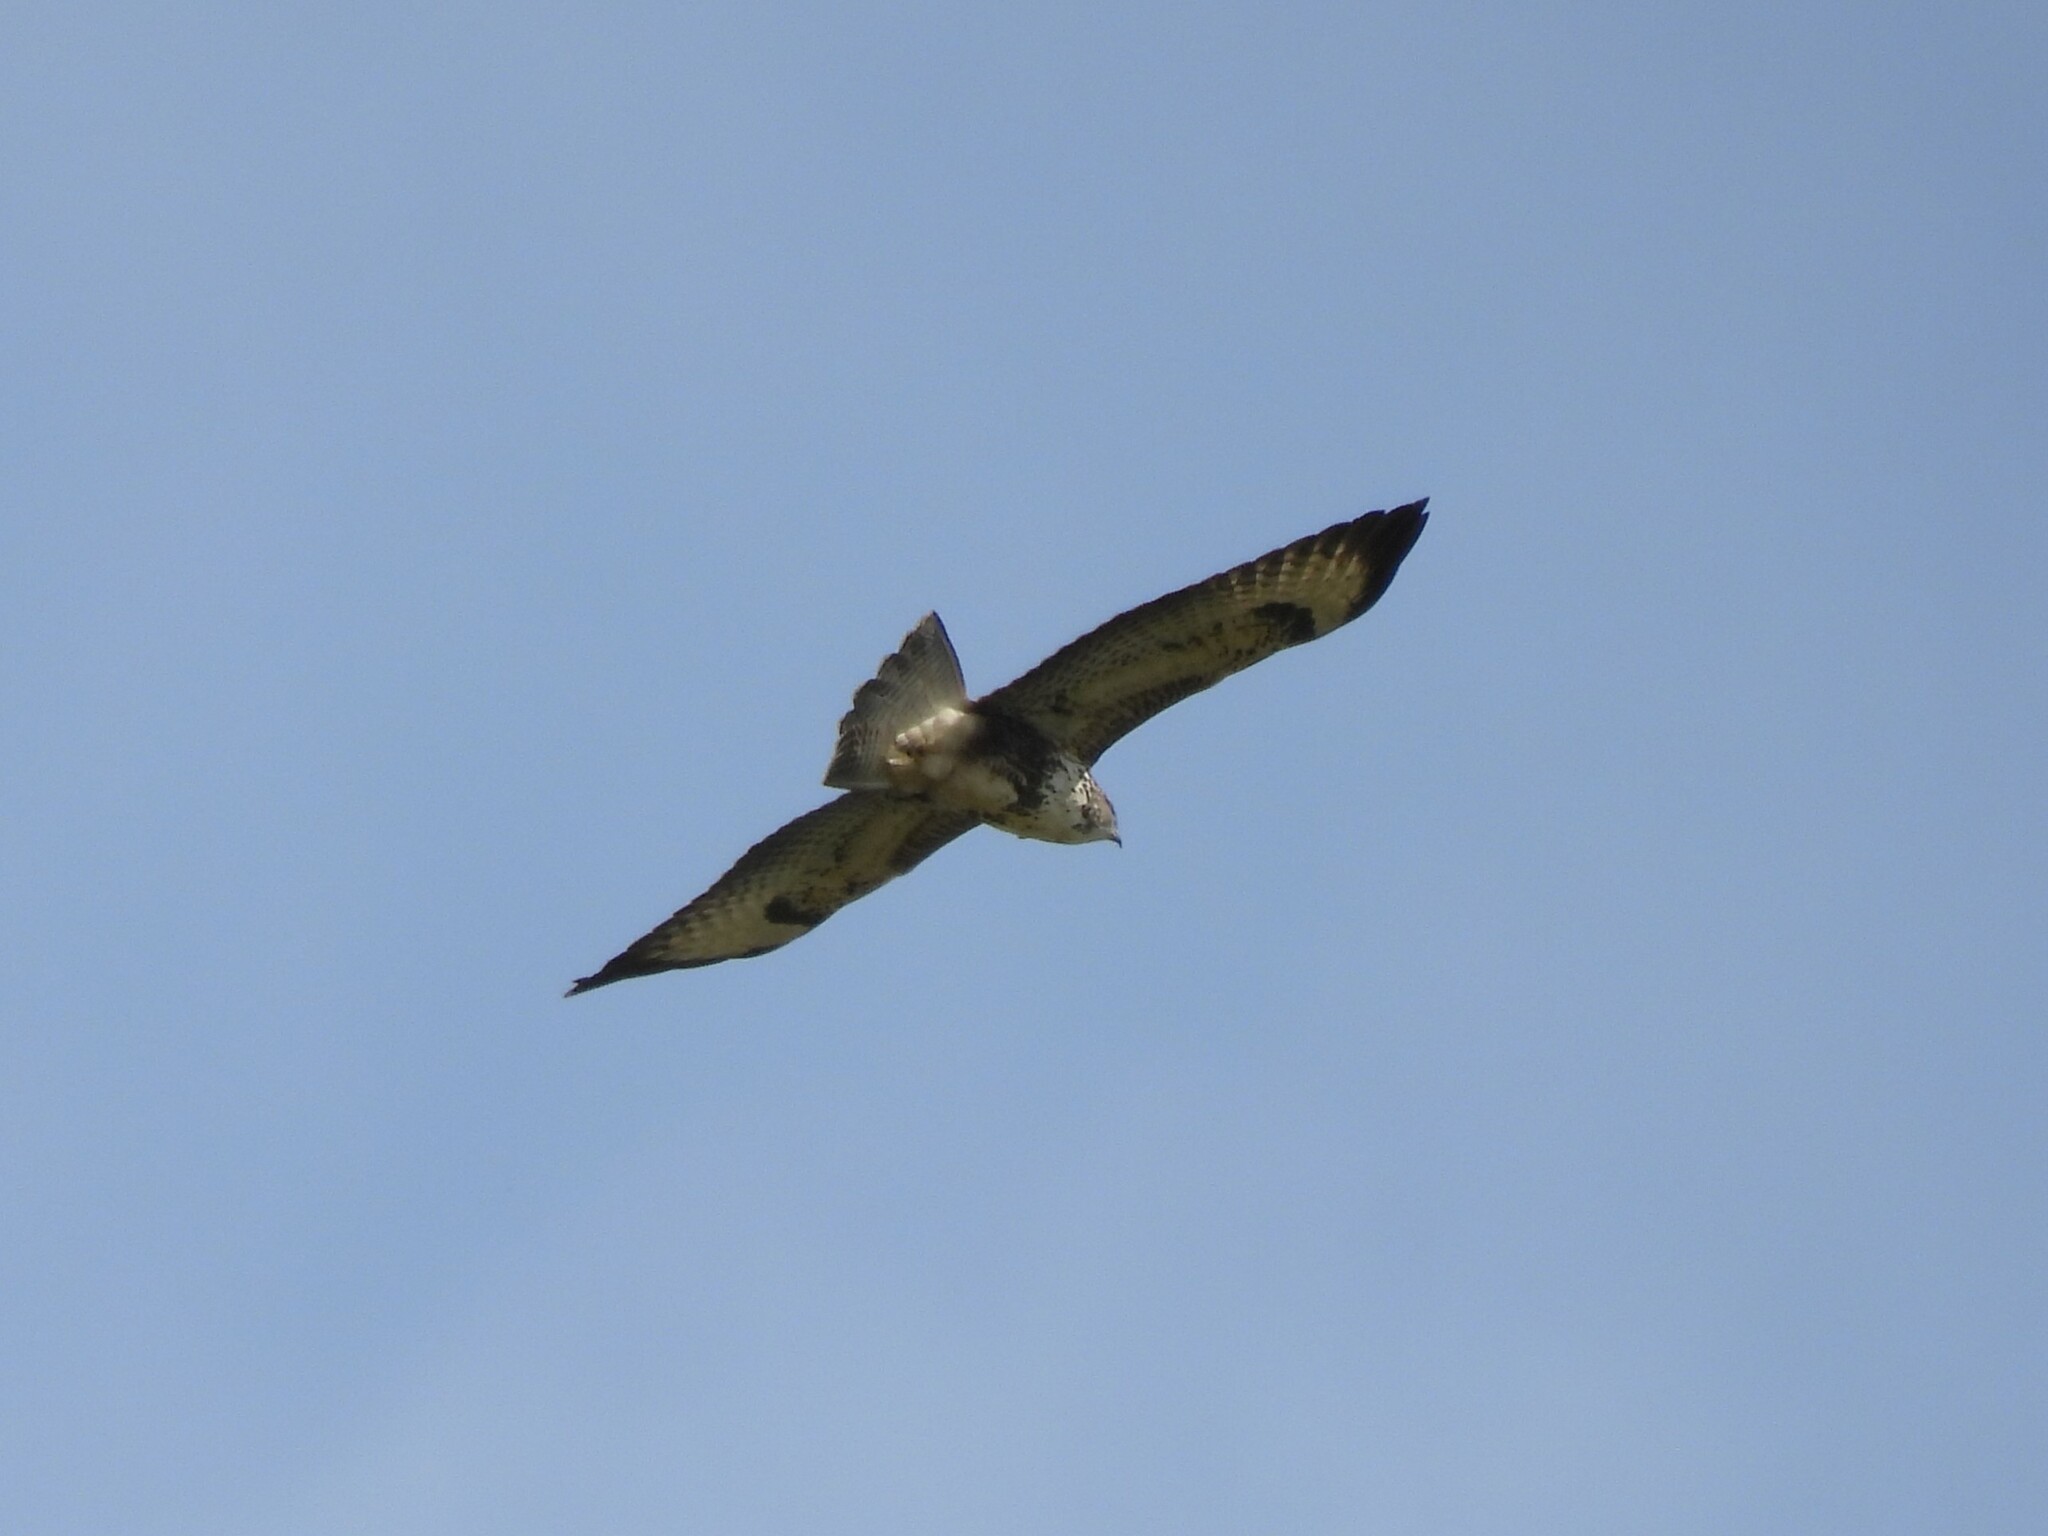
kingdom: Animalia
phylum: Chordata
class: Aves
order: Accipitriformes
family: Accipitridae
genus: Buteo
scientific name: Buteo buteo
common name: Common buzzard
